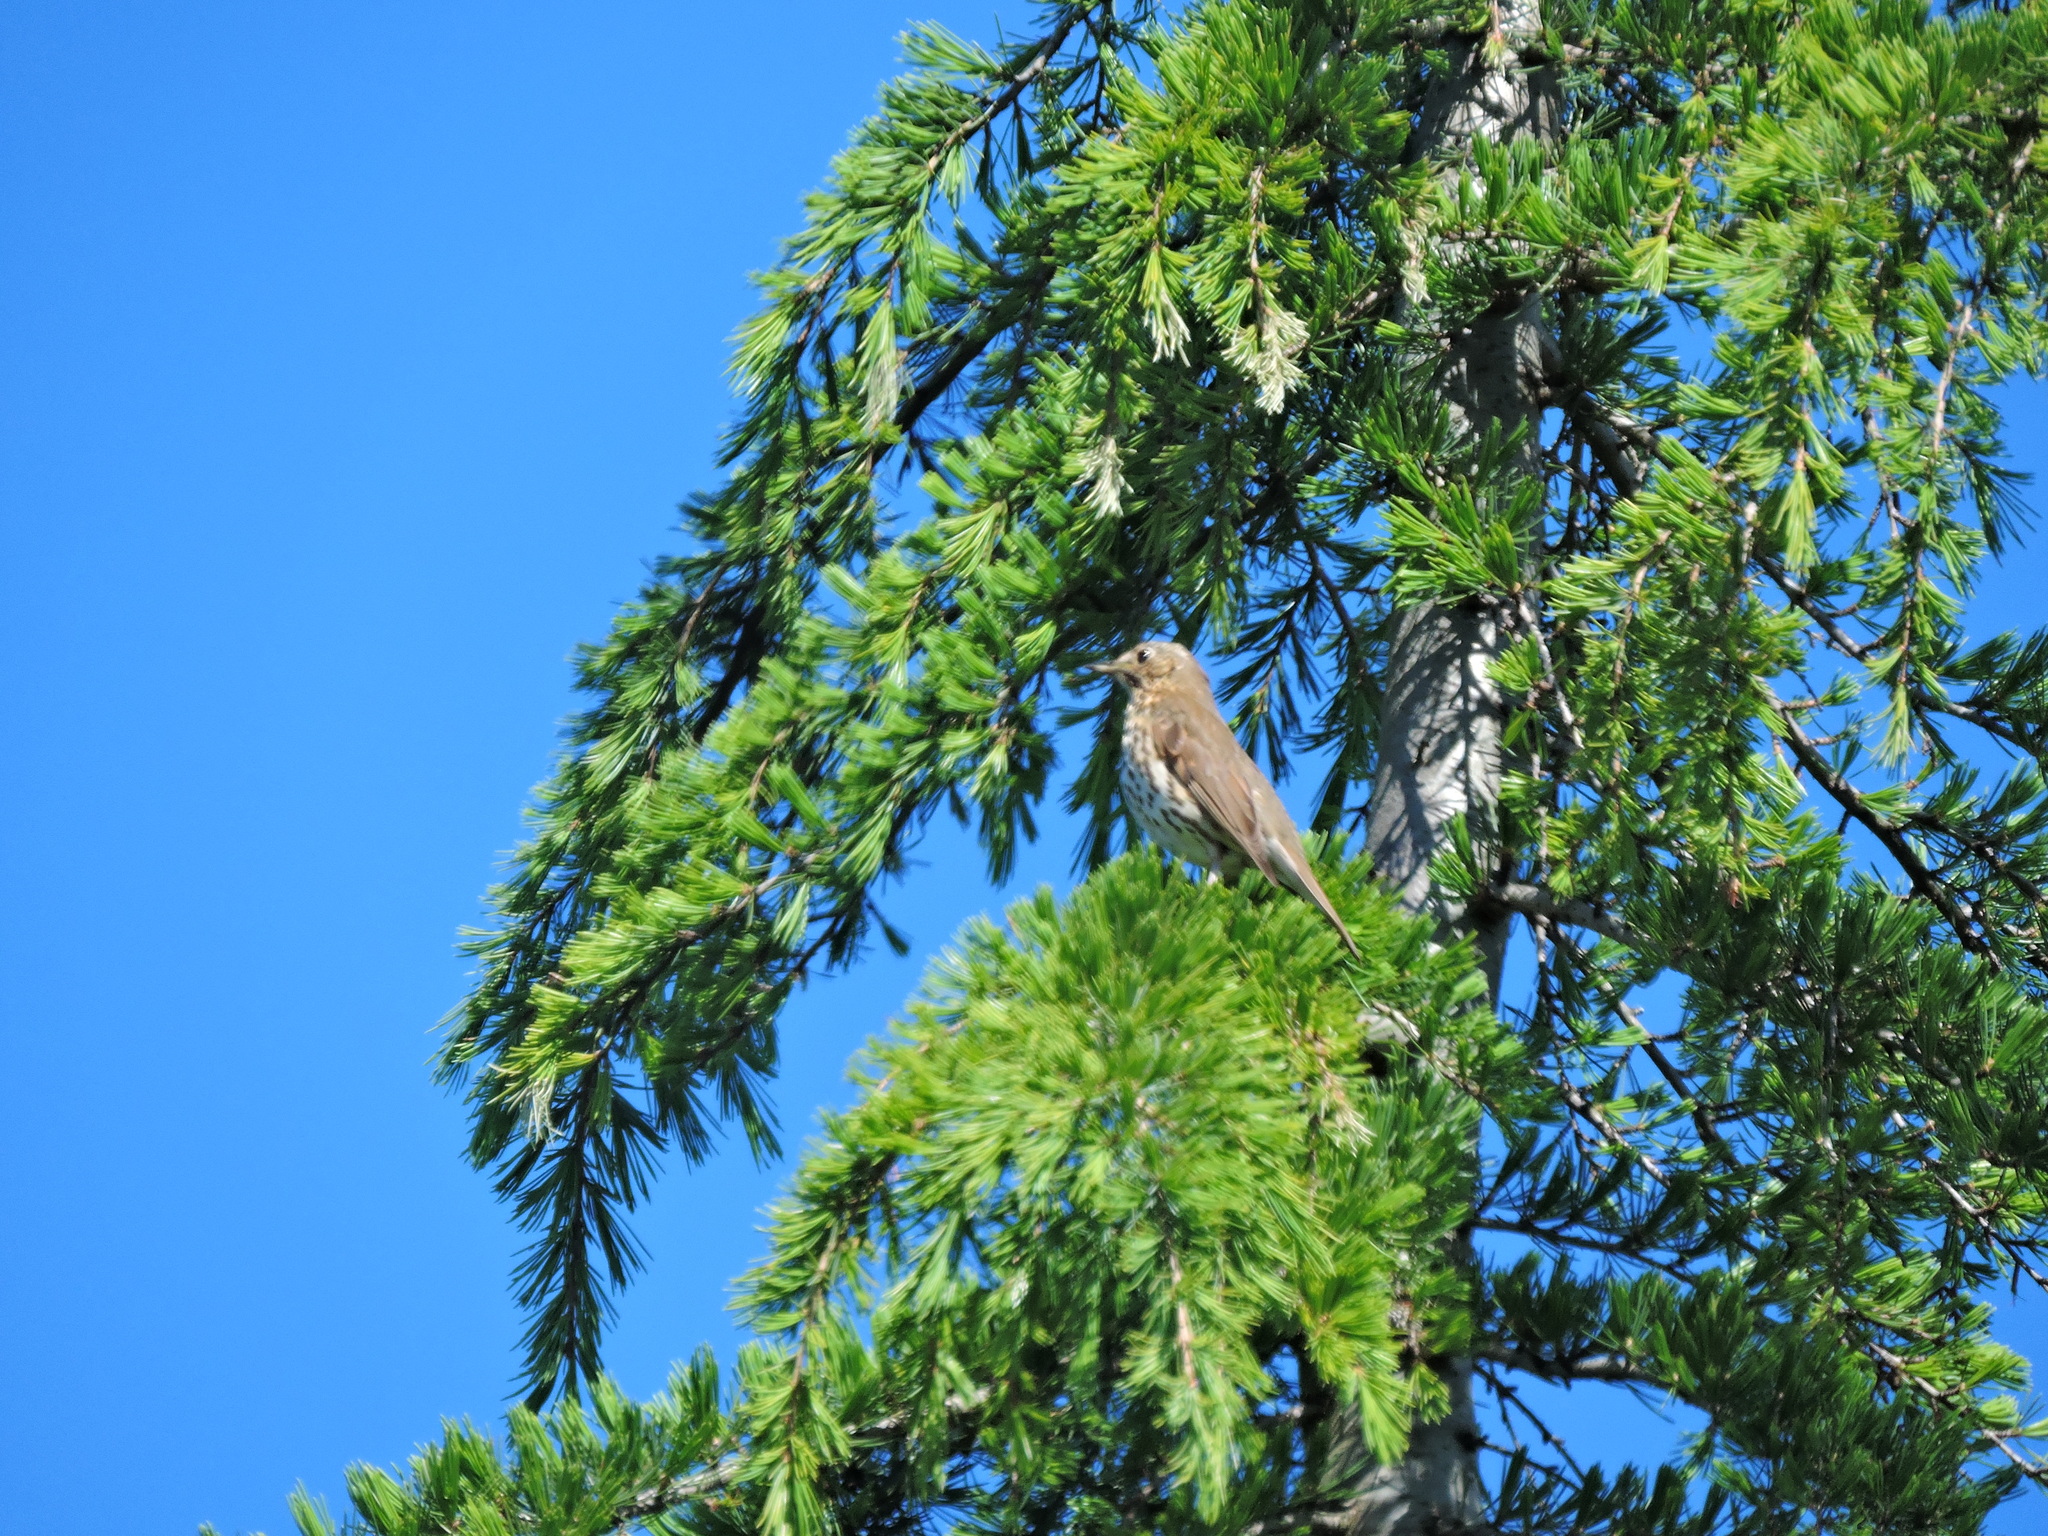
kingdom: Animalia
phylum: Chordata
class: Aves
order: Passeriformes
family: Turdidae
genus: Turdus
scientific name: Turdus philomelos
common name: Song thrush
